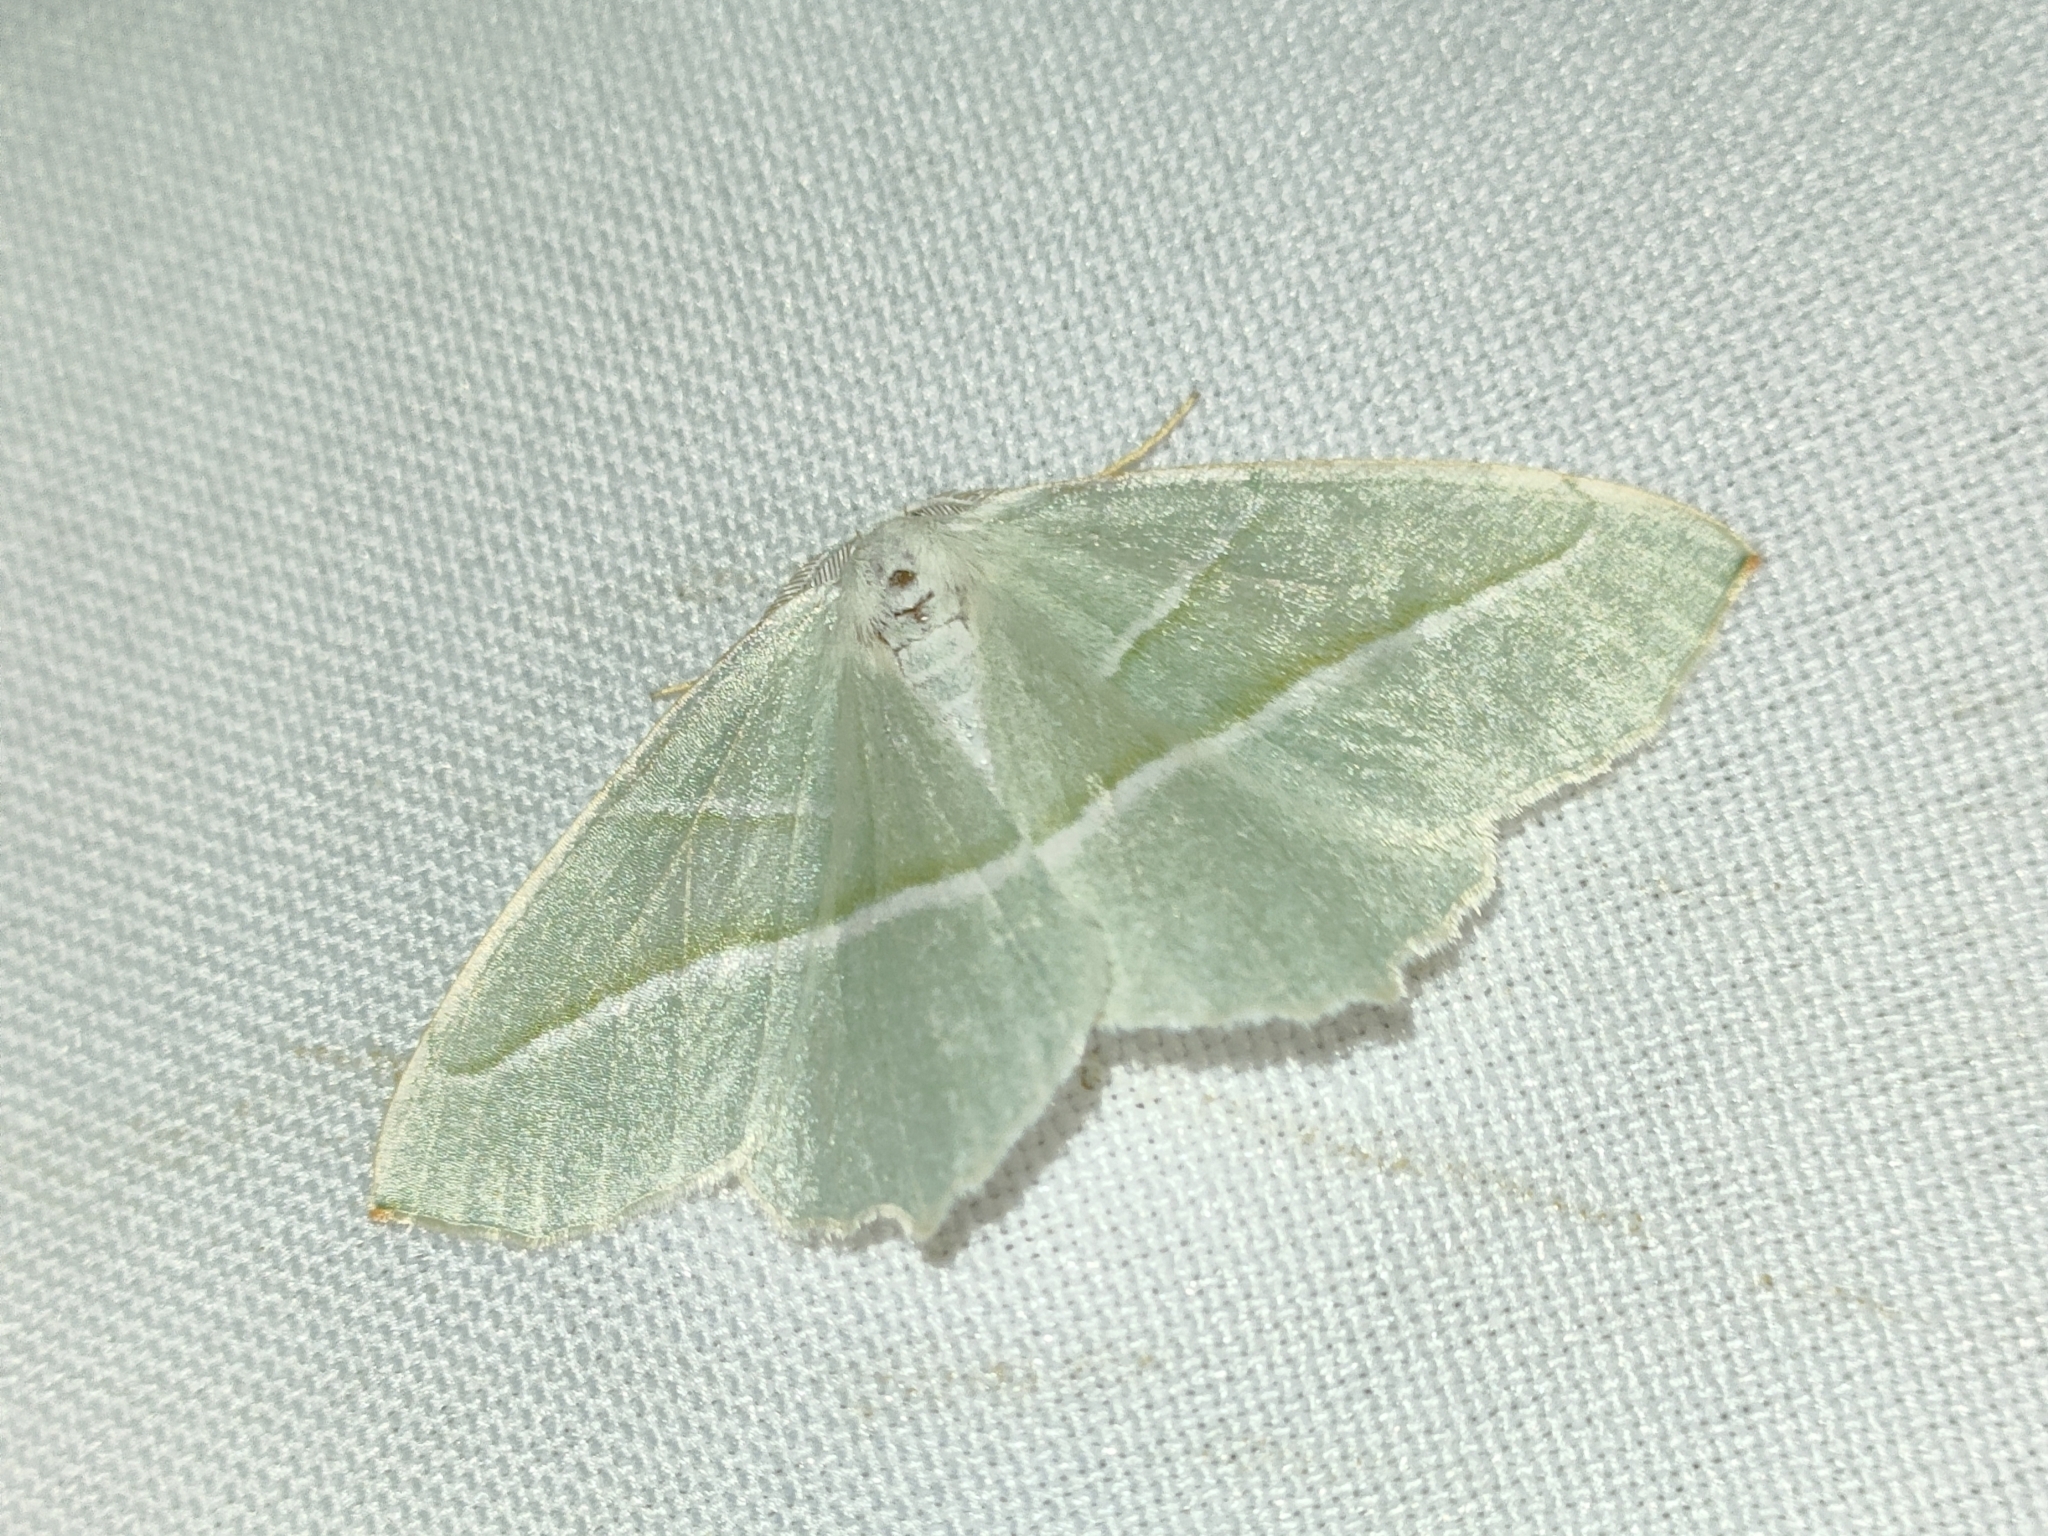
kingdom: Animalia
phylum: Arthropoda
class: Insecta
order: Lepidoptera
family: Geometridae
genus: Campaea
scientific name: Campaea margaritaria
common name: Light emerald
